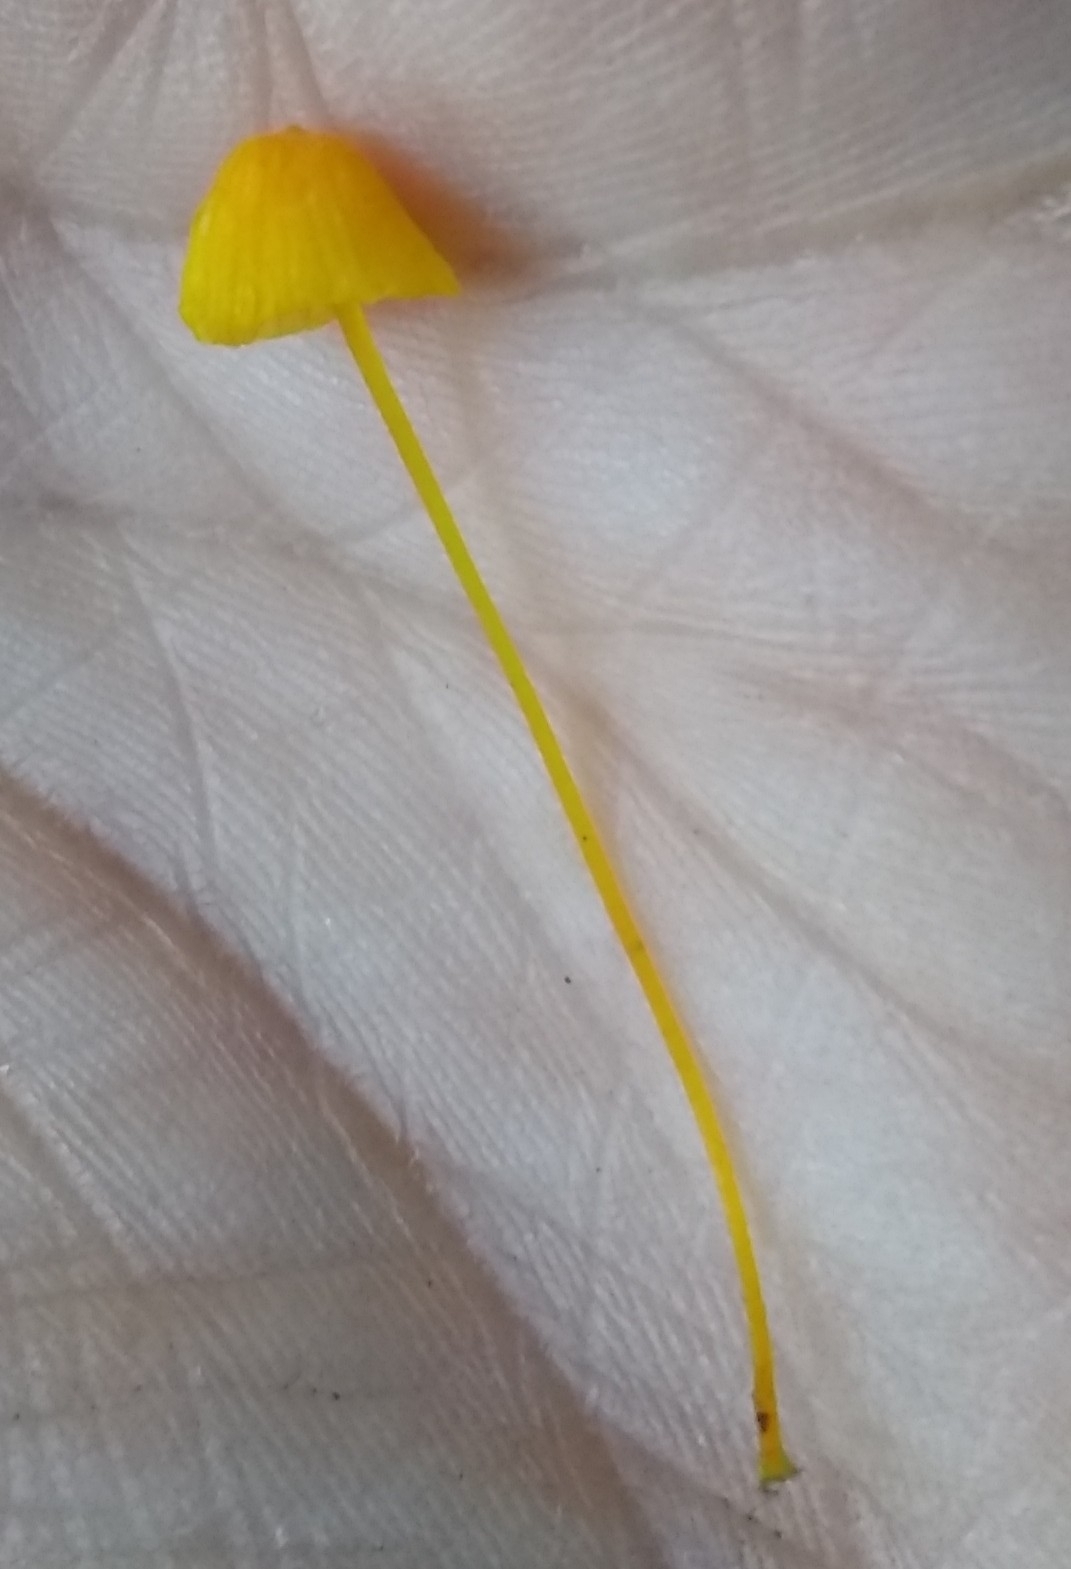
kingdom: Fungi
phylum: Basidiomycota
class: Agaricomycetes
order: Agaricales
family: Mycenaceae
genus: Mycena
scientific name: Mycena oregonensis
